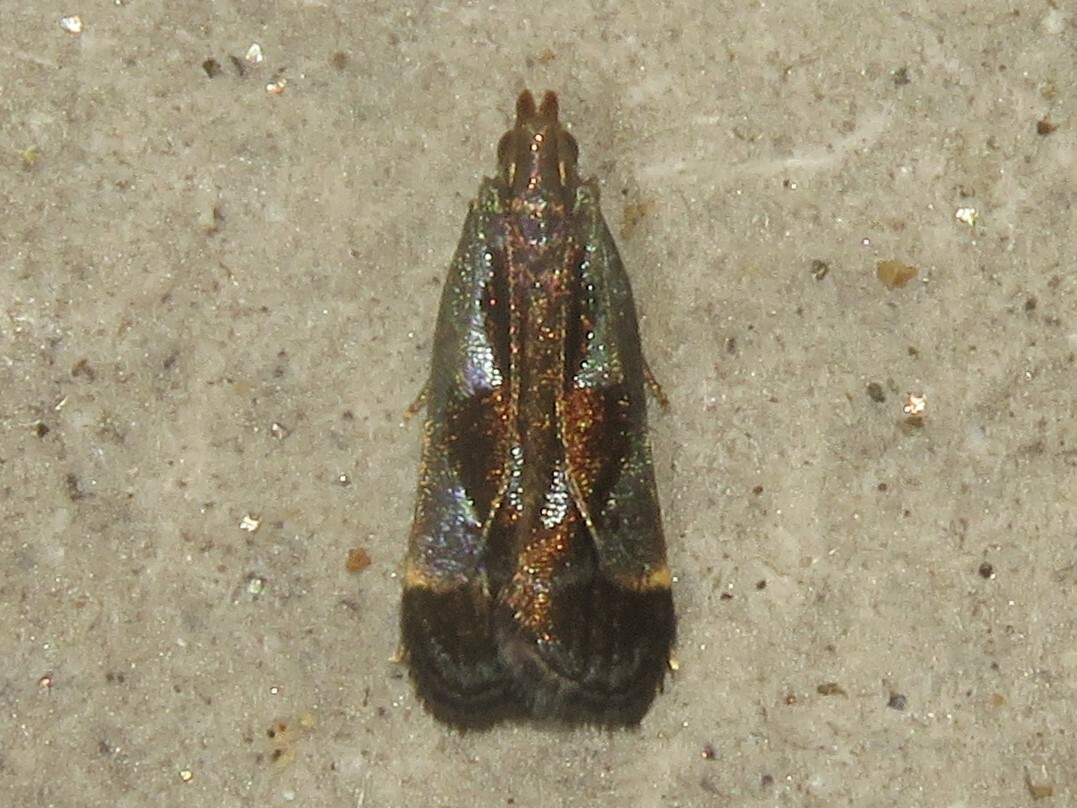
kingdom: Animalia
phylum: Arthropoda
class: Insecta
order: Lepidoptera
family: Gelechiidae
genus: Dichomeris
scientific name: Dichomeris ochripalpella
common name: Shining dichomeris moth
